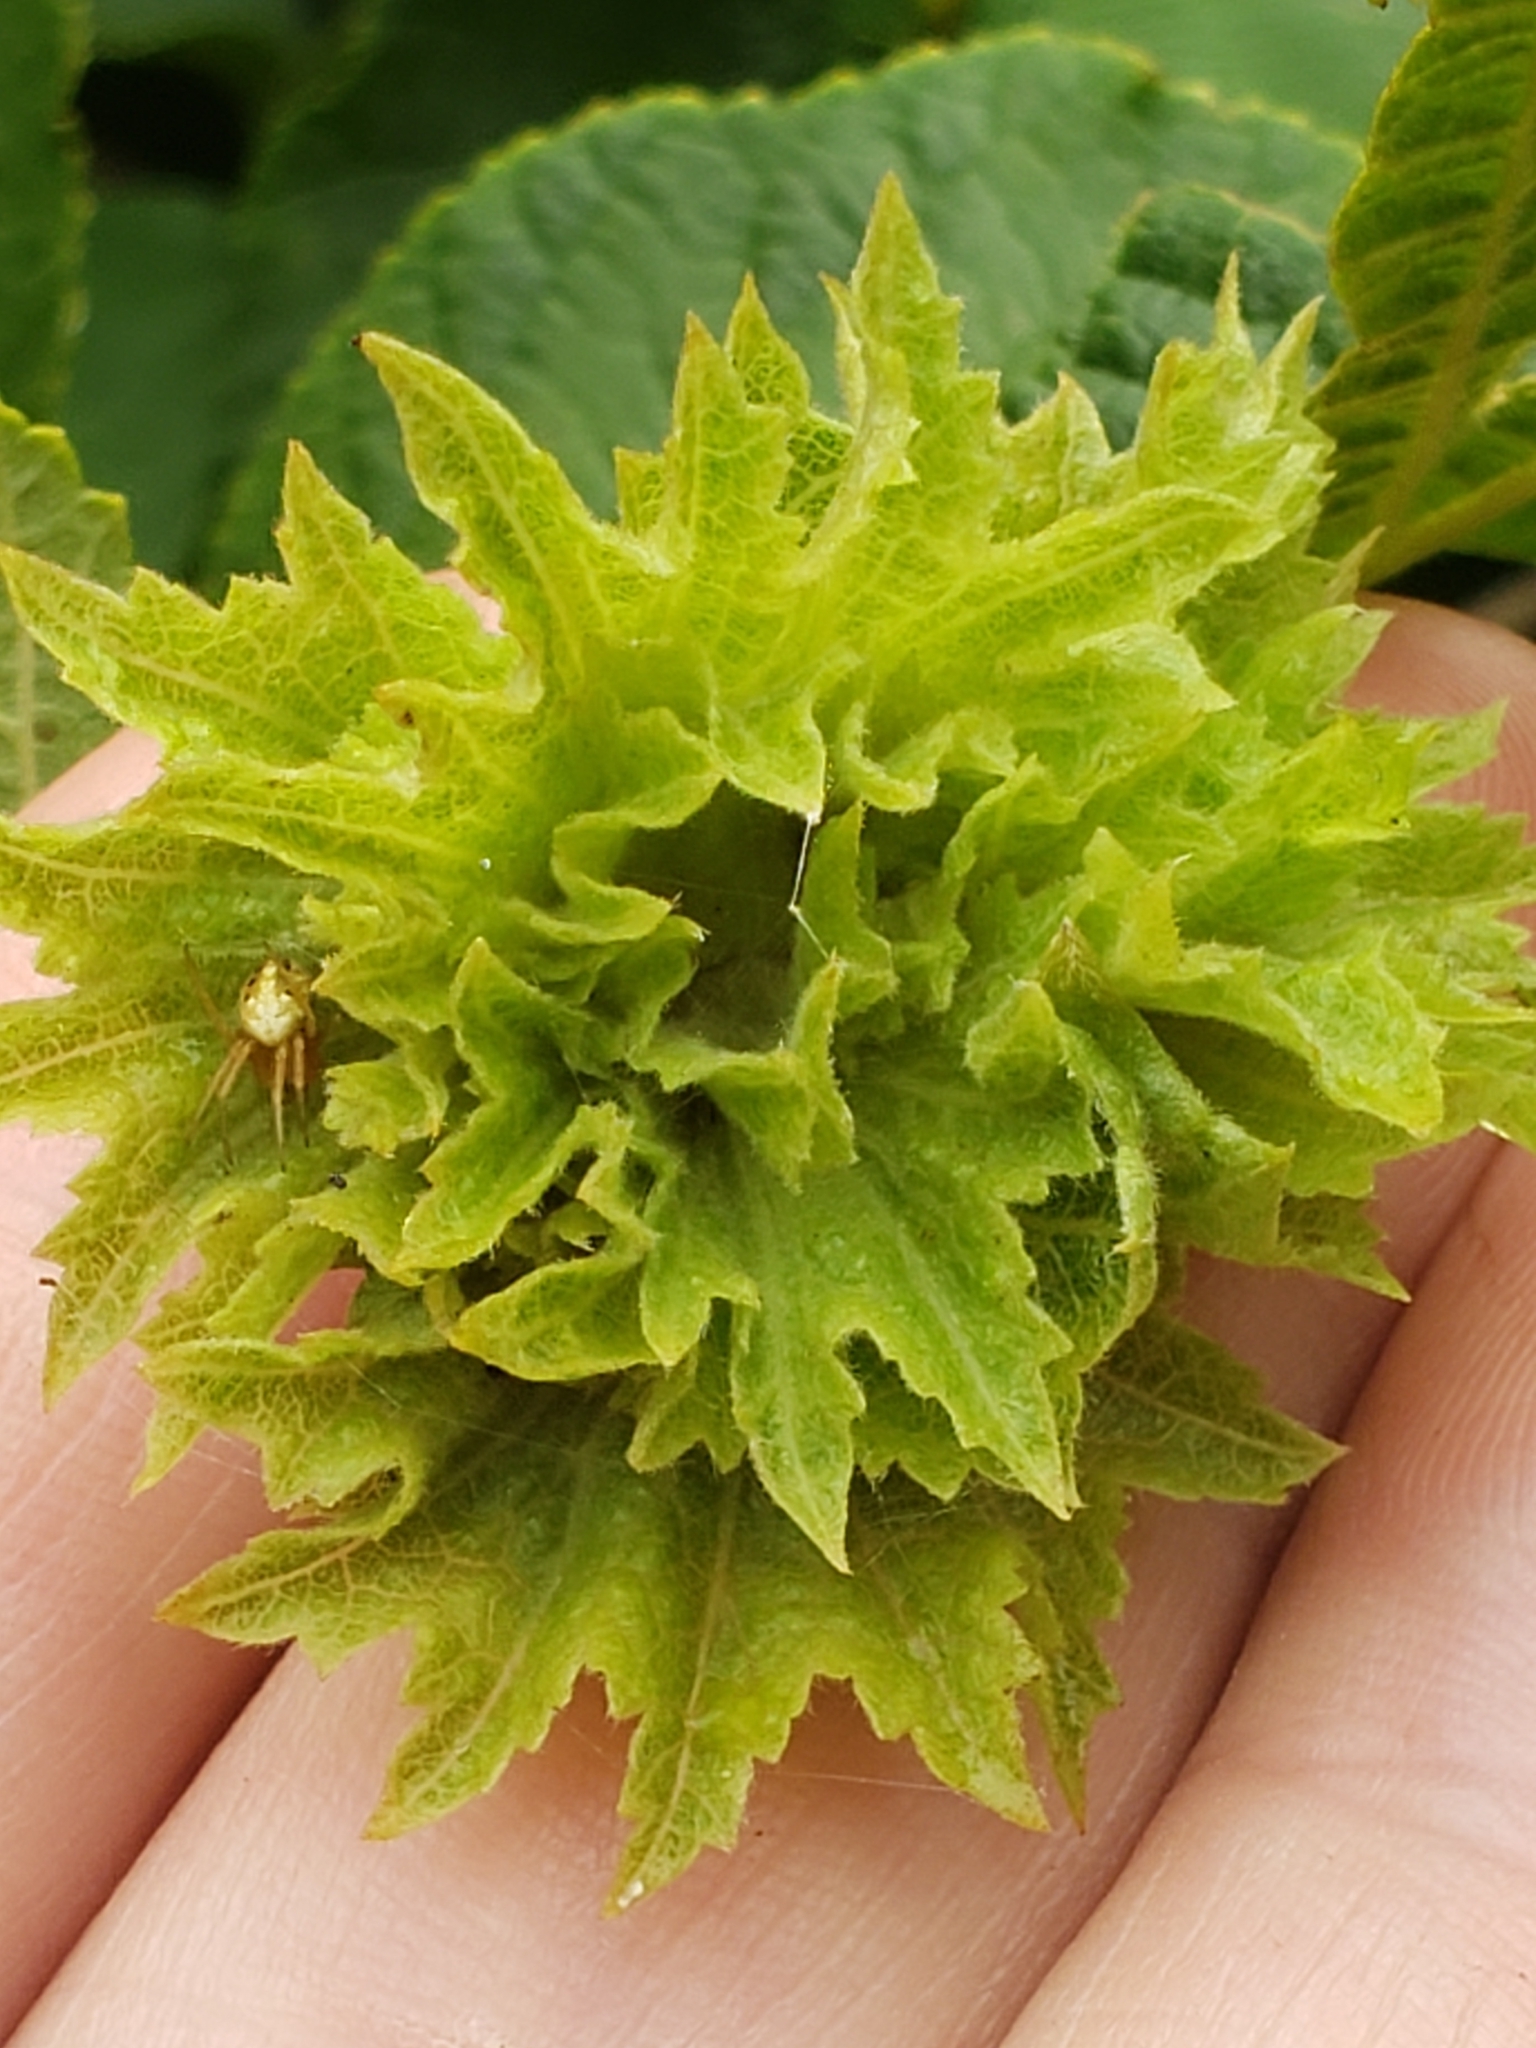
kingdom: Plantae
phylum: Tracheophyta
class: Magnoliopsida
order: Fagales
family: Betulaceae
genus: Corylus
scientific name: Corylus americana
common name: American hazel
